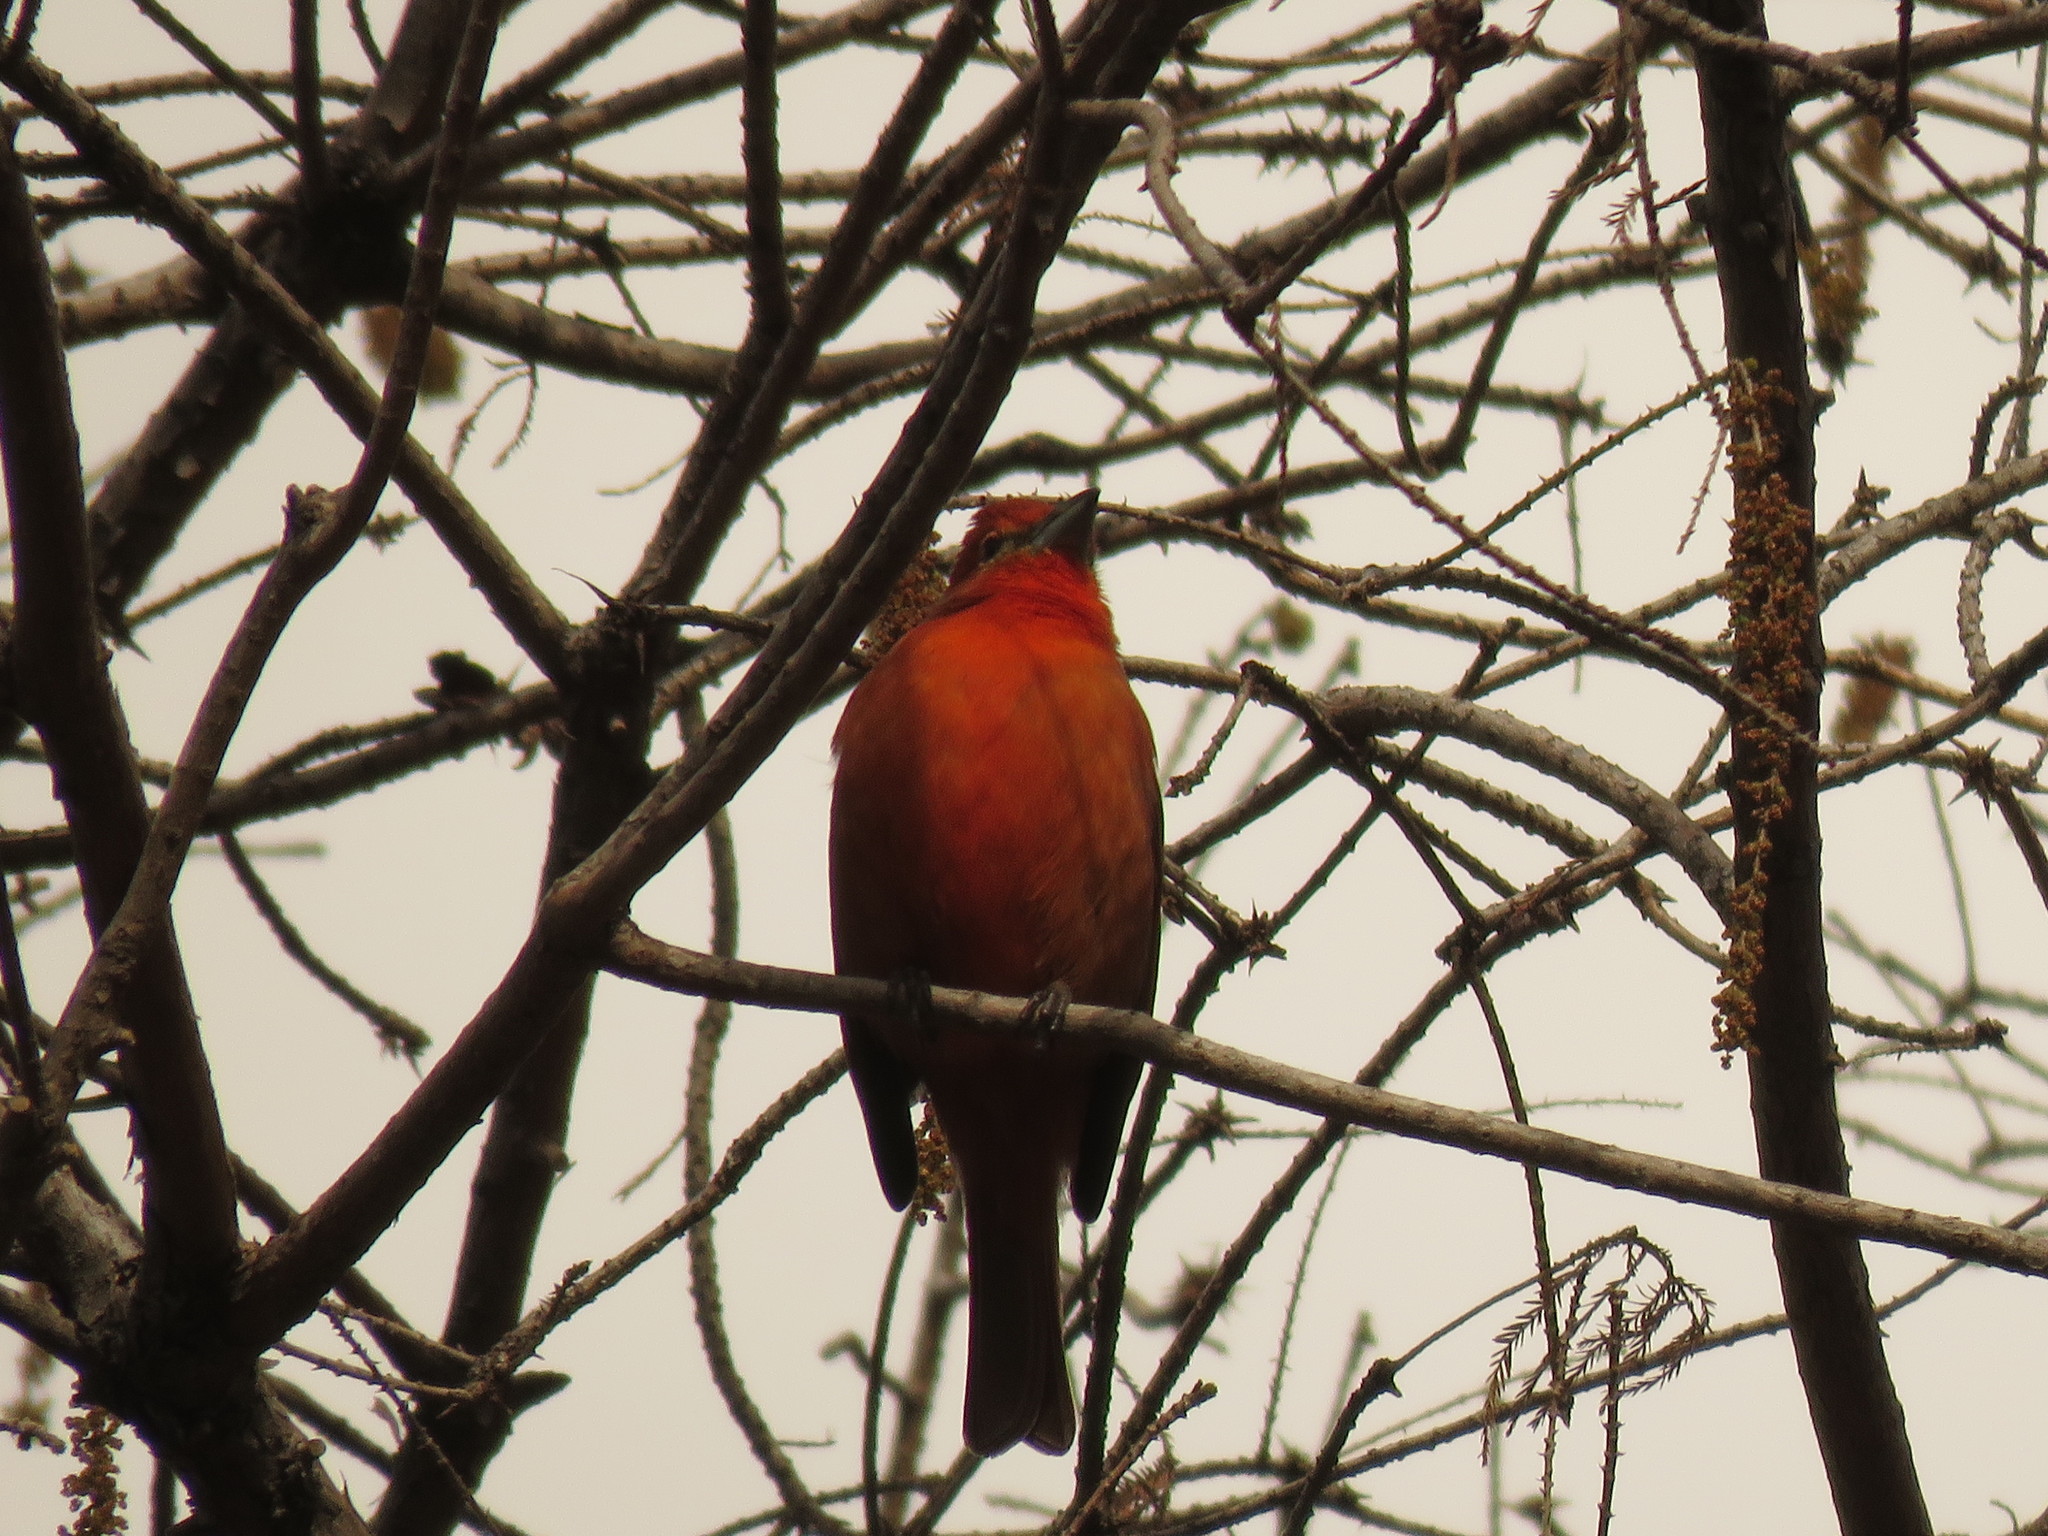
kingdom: Animalia
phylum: Chordata
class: Aves
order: Passeriformes
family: Cardinalidae
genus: Piranga
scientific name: Piranga flava
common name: Red tanager
